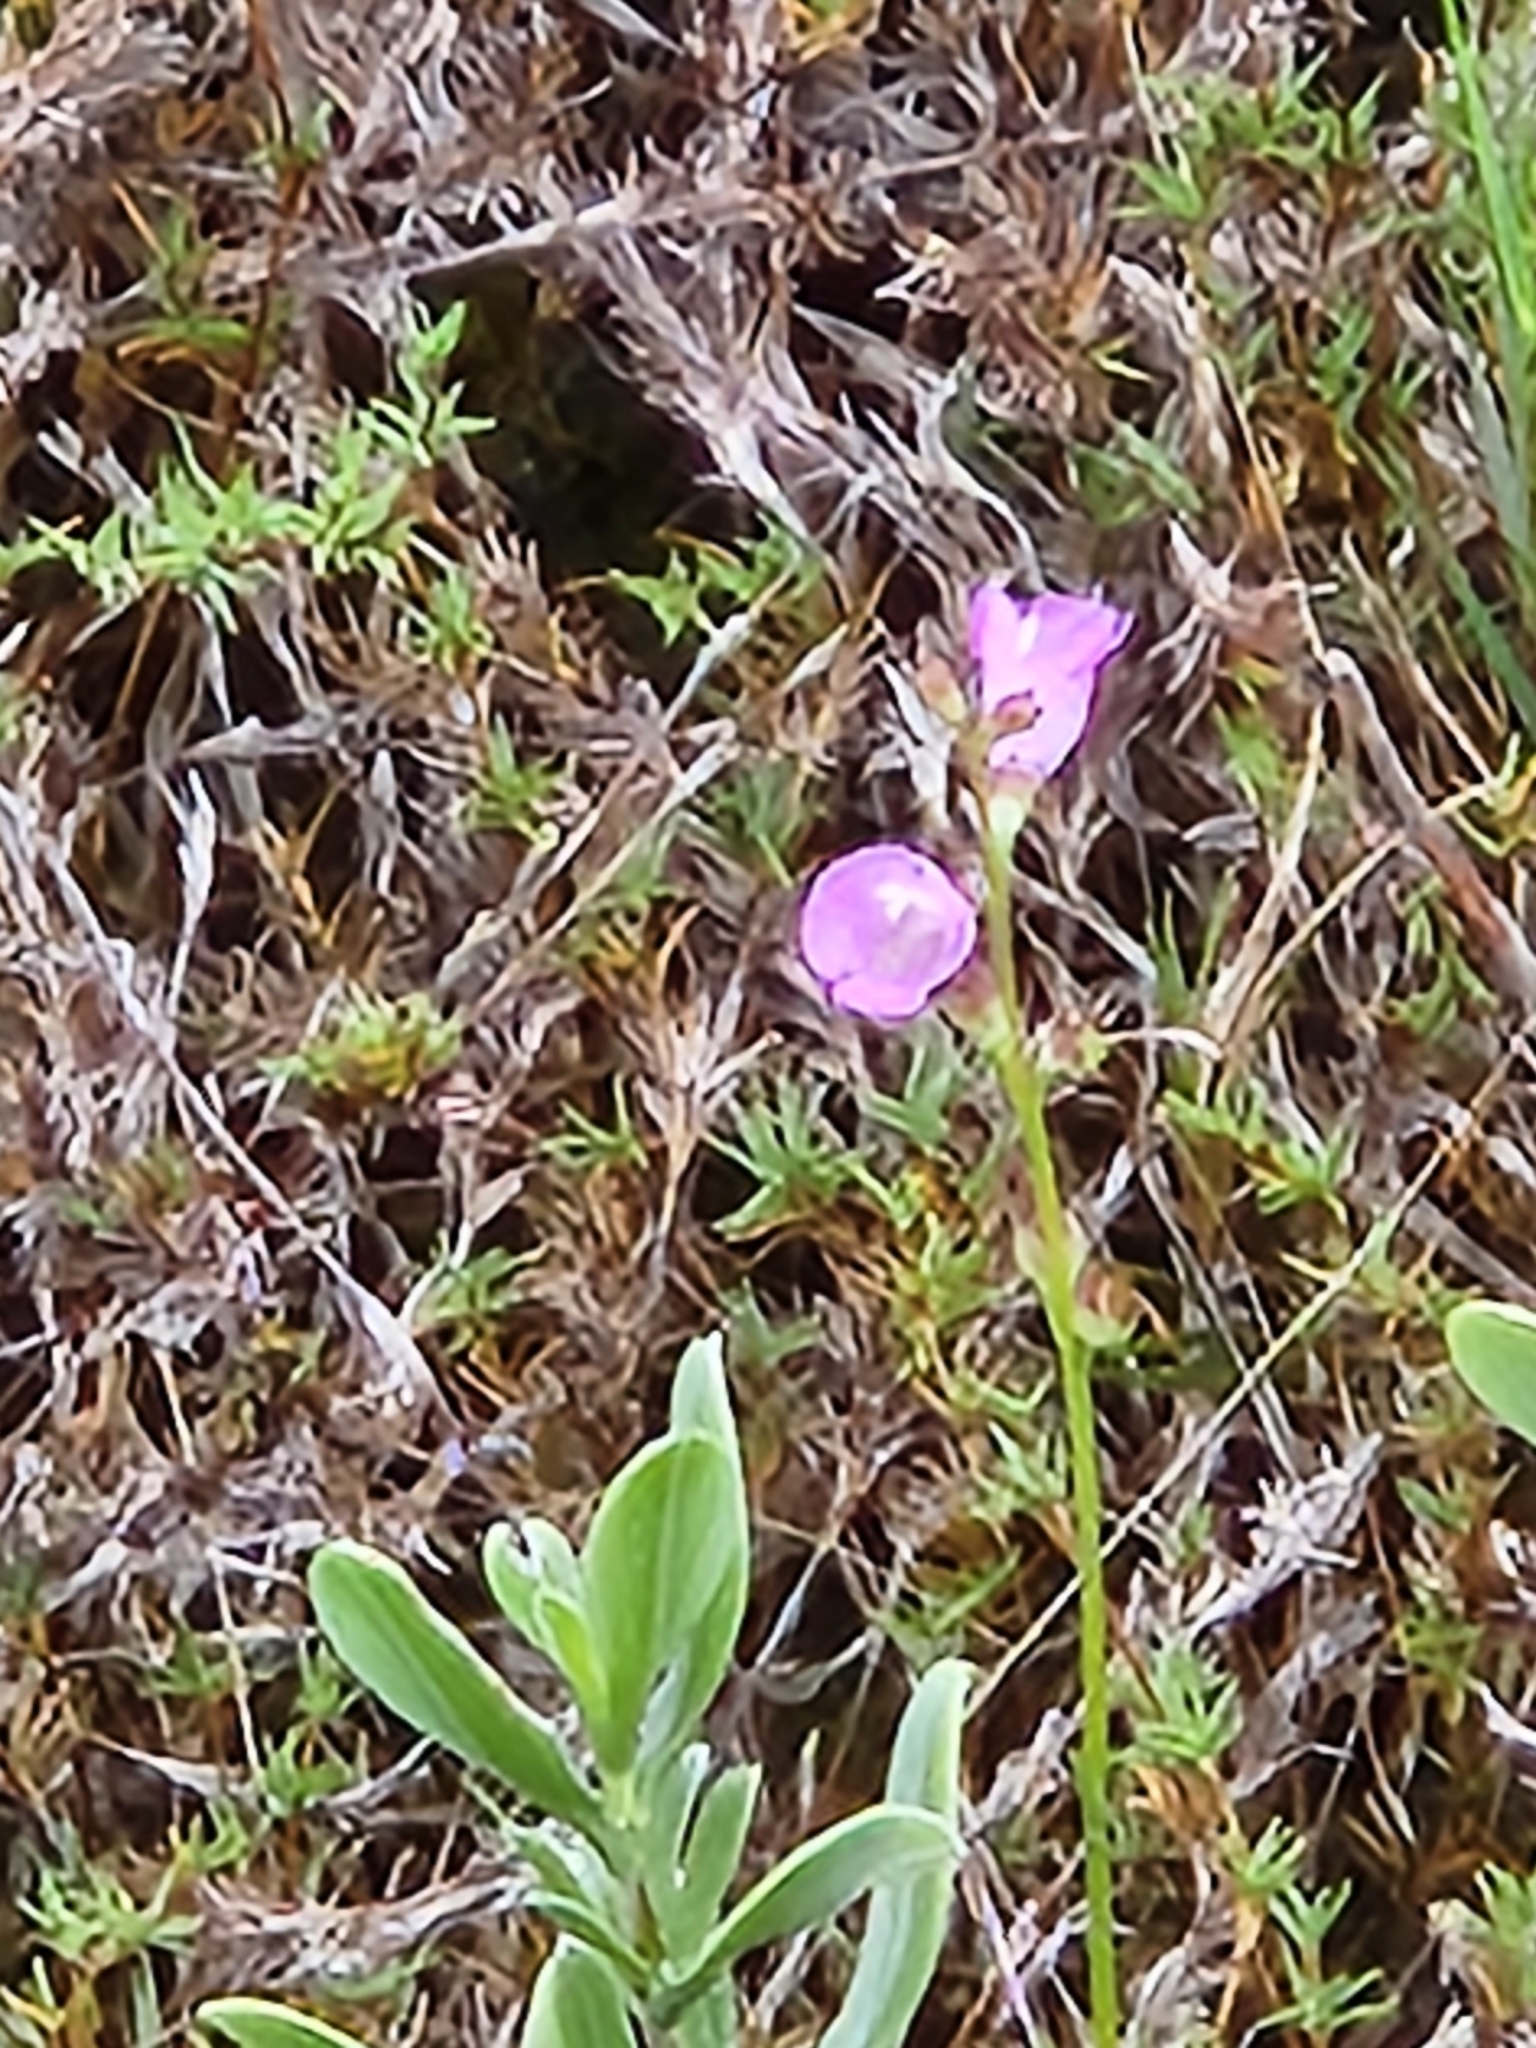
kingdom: Plantae
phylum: Tracheophyta
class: Magnoliopsida
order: Lamiales
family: Orobanchaceae
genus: Agalinis
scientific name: Agalinis maritima
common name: Saltmarsh agalinis
